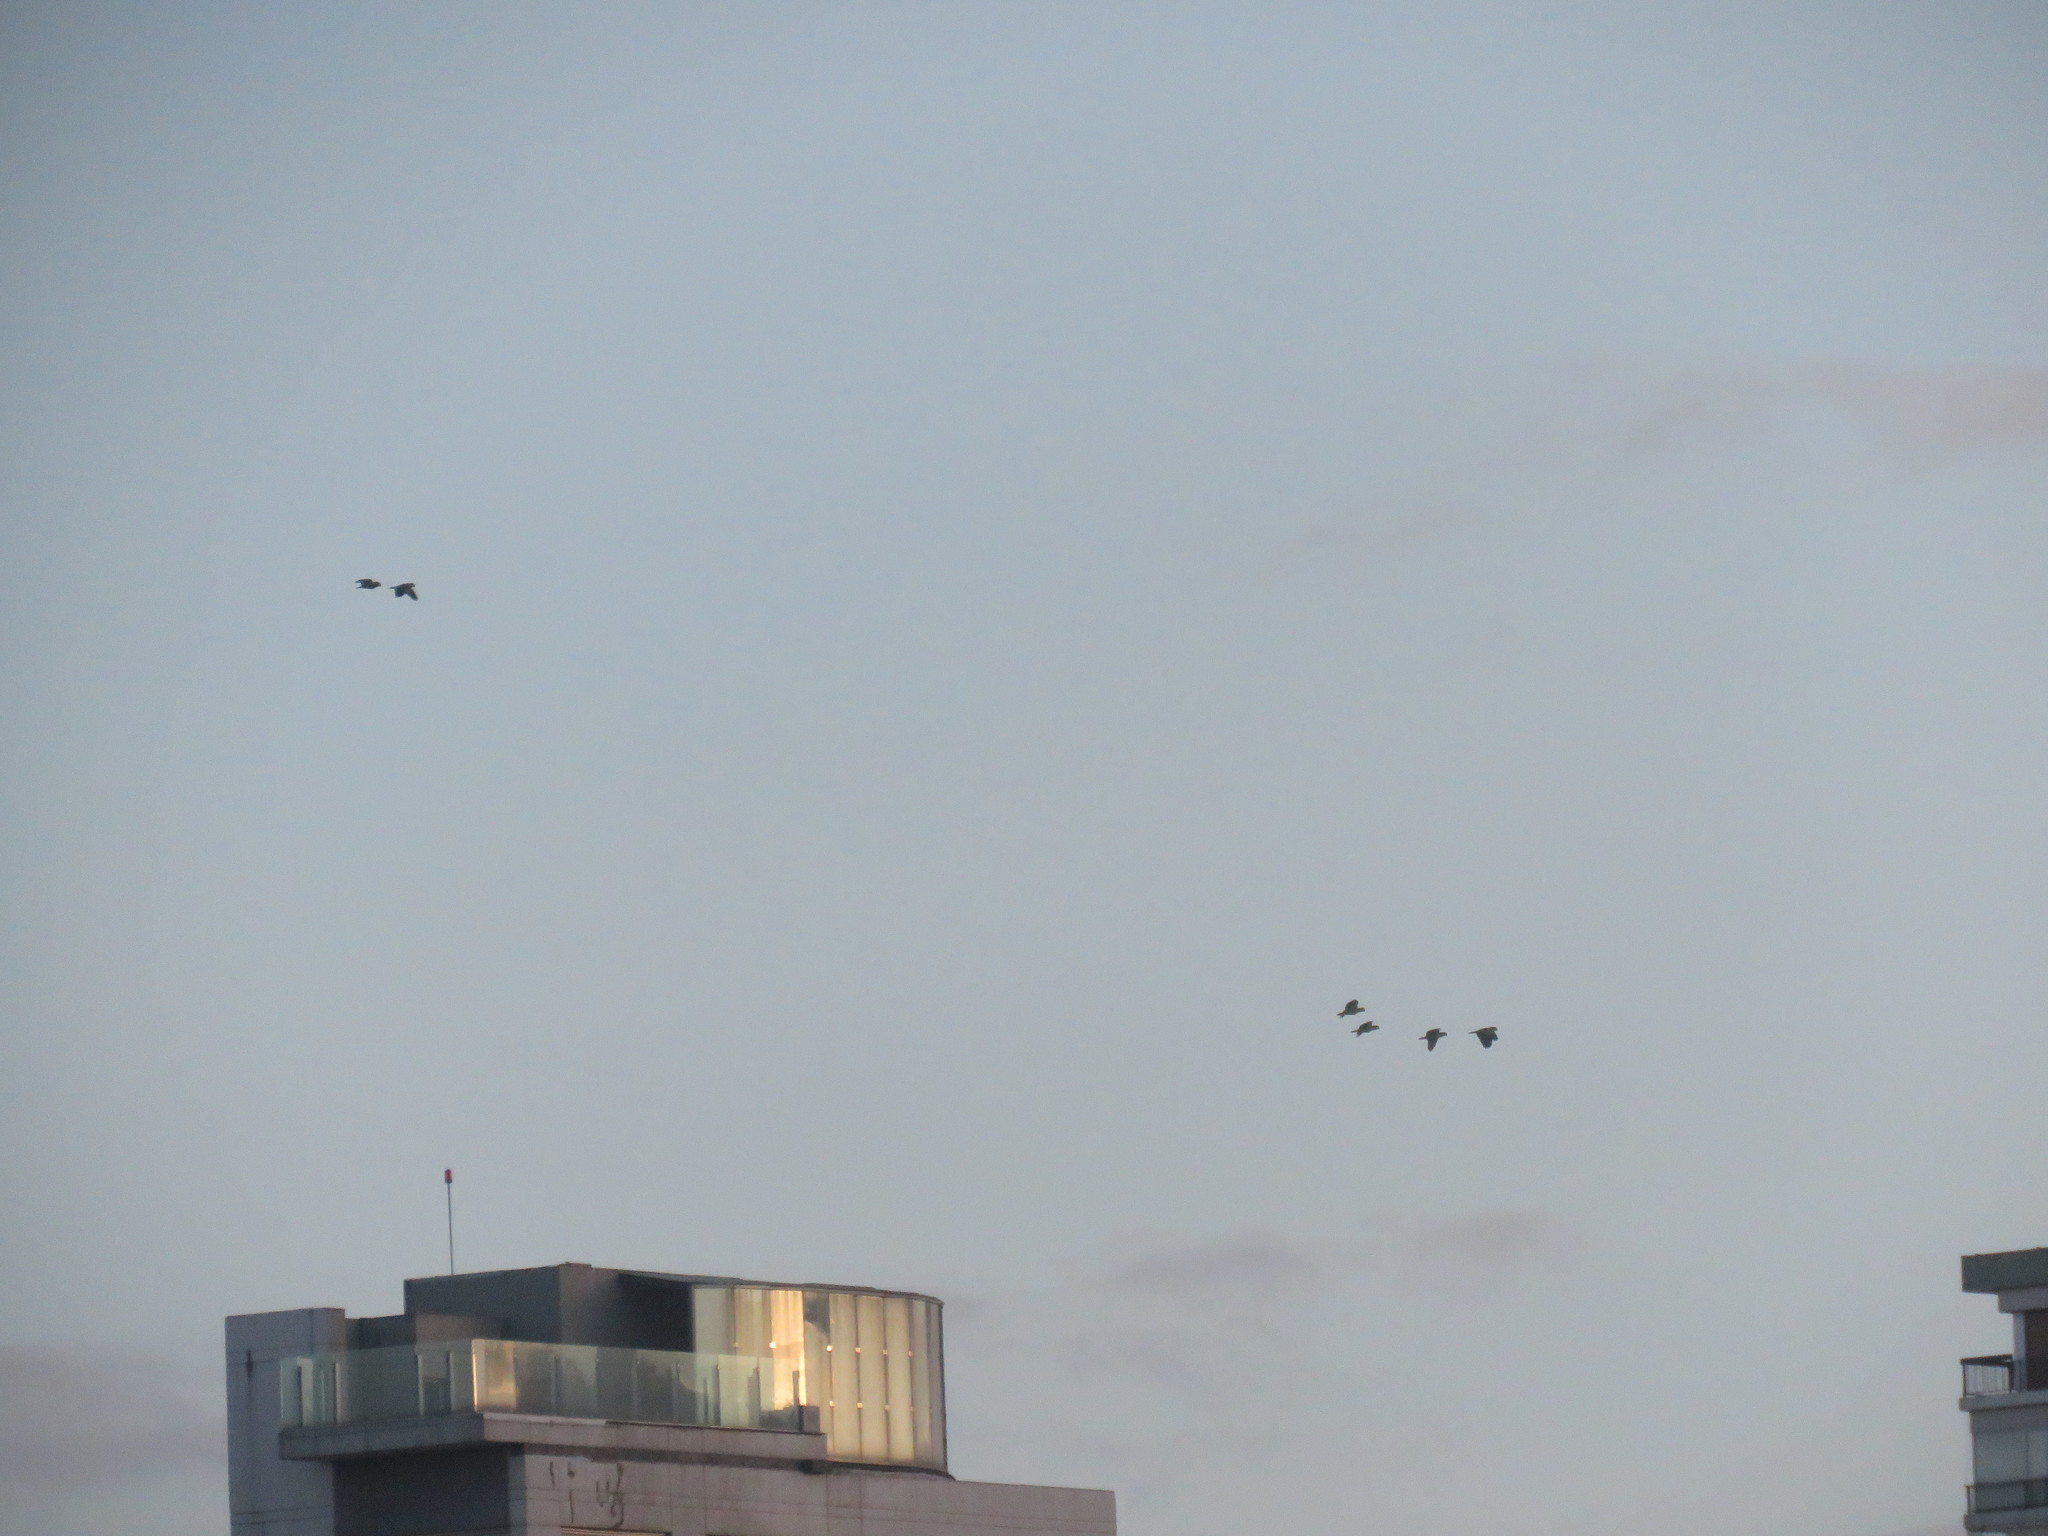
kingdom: Animalia
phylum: Chordata
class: Aves
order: Psittaciformes
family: Psittacidae
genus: Amazona
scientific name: Amazona aestiva
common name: Turquoise-fronted amazon
